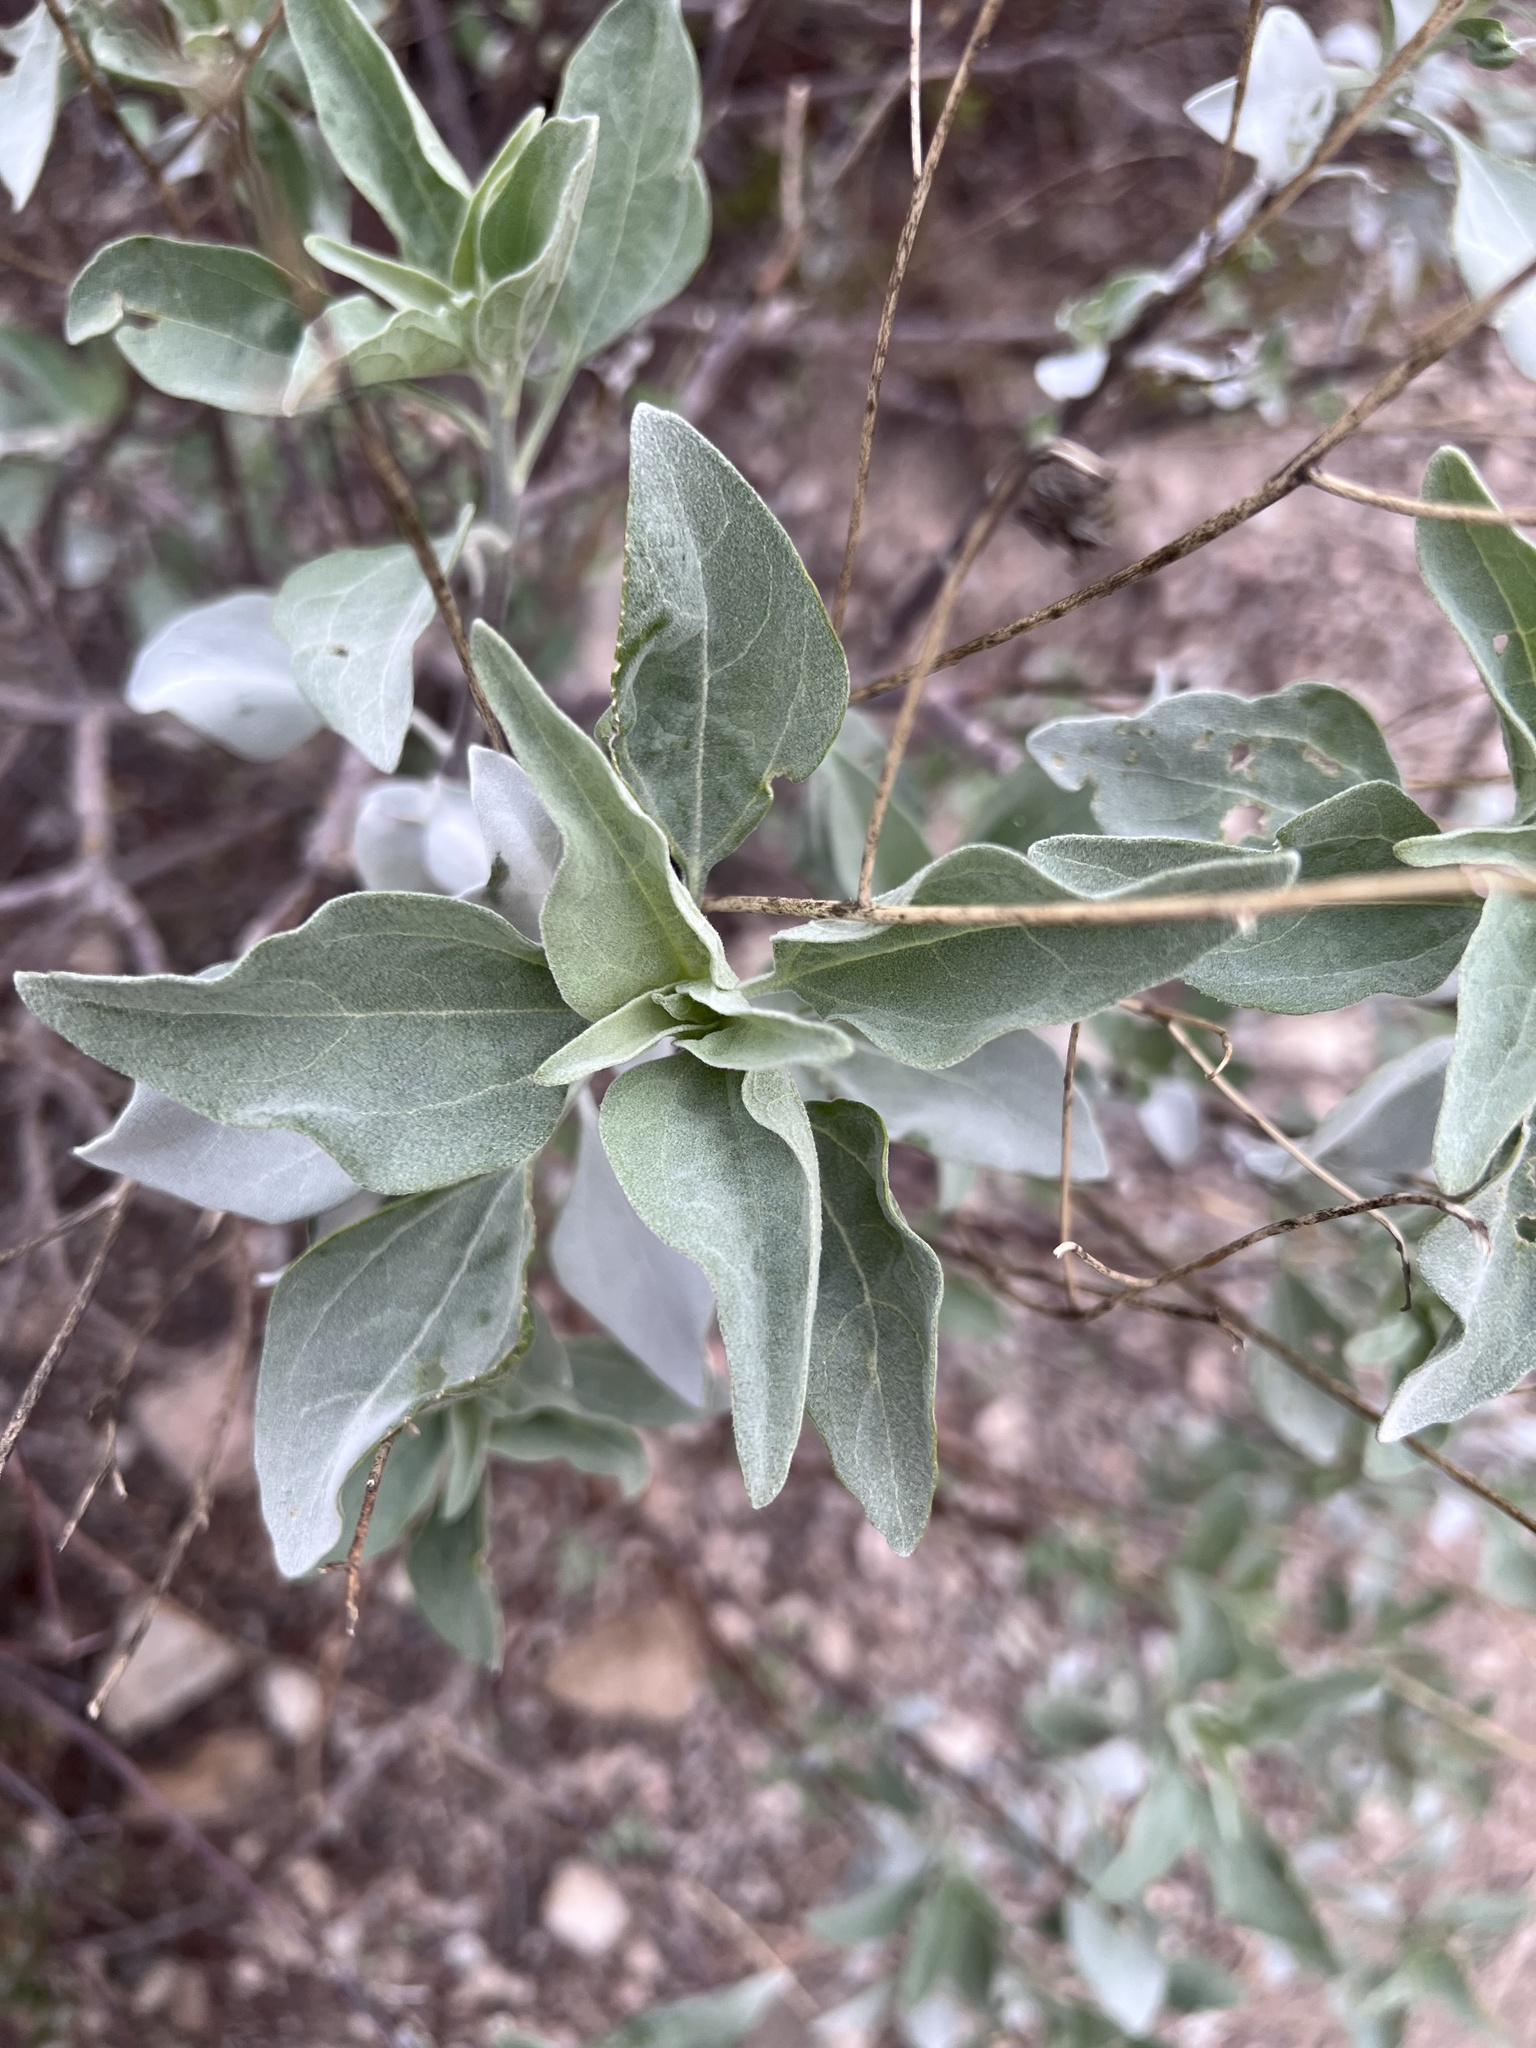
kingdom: Plantae
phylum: Tracheophyta
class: Magnoliopsida
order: Asterales
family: Asteraceae
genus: Encelia
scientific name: Encelia farinosa
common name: Brittlebush
